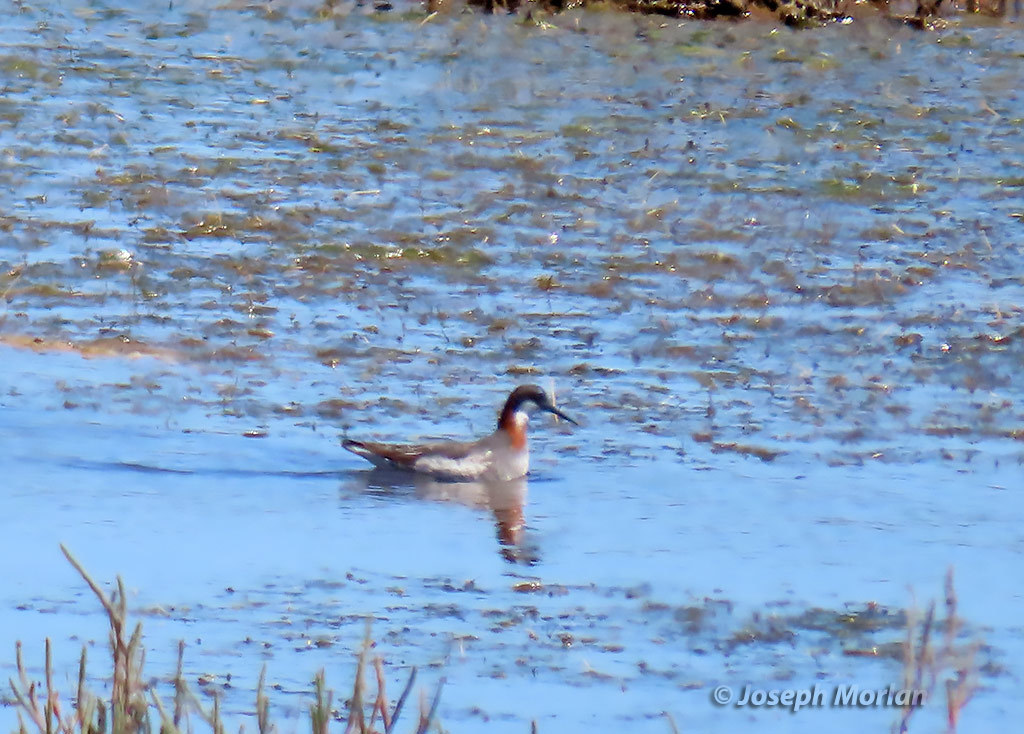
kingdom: Animalia
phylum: Chordata
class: Aves
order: Charadriiformes
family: Scolopacidae
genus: Phalaropus
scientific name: Phalaropus lobatus
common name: Red-necked phalarope
